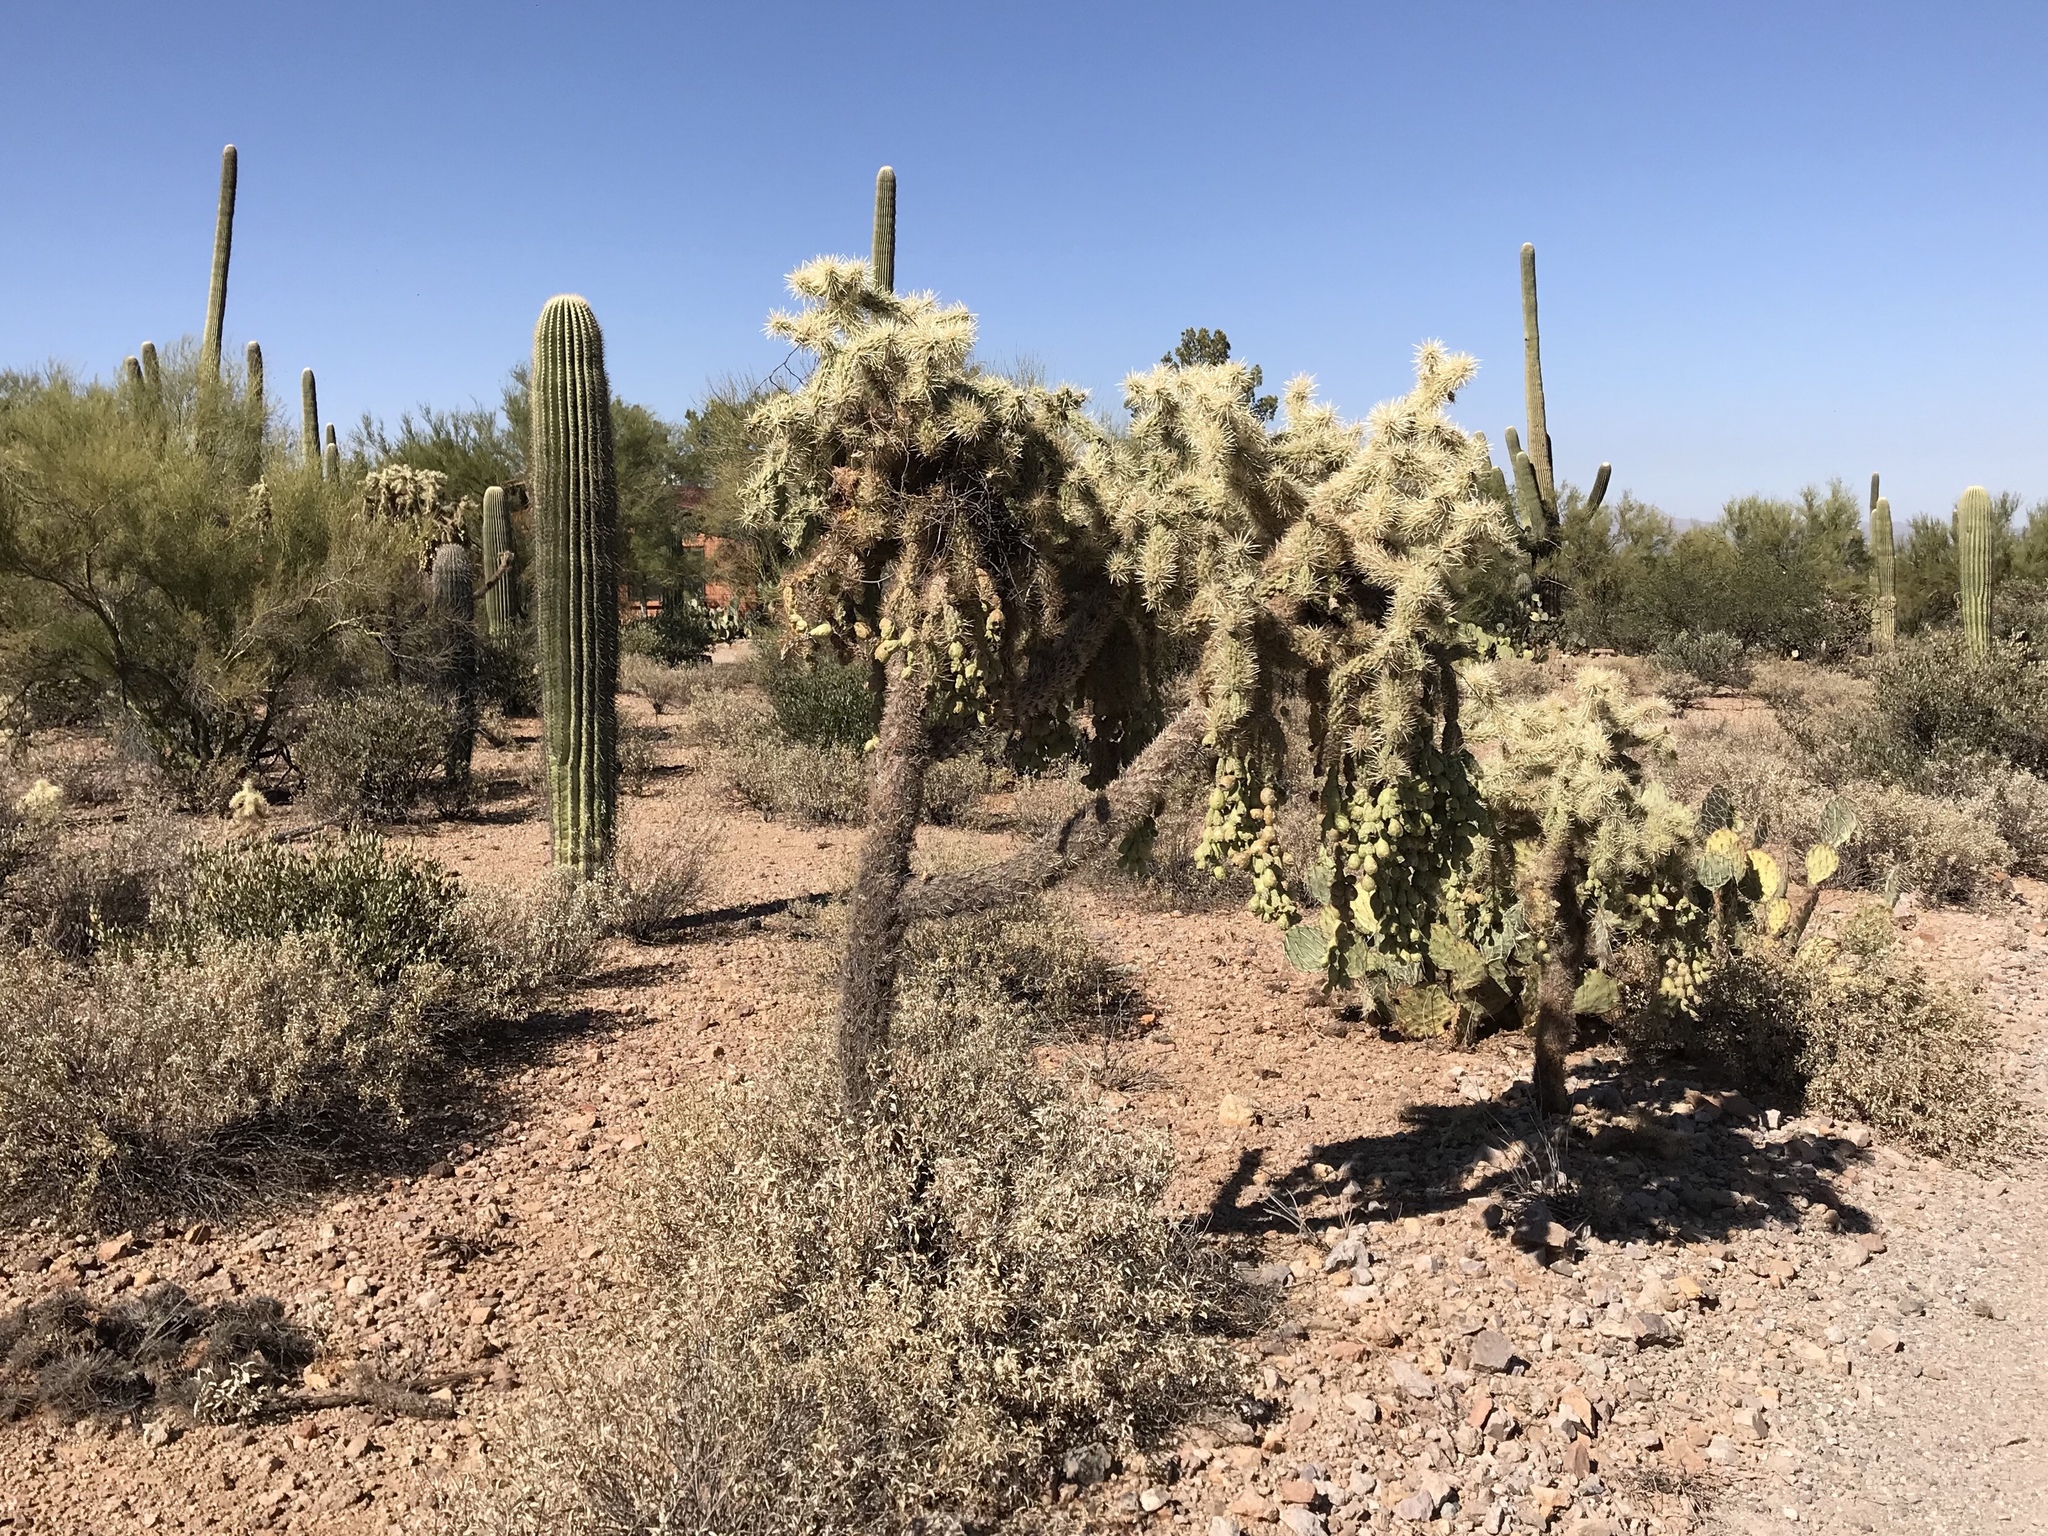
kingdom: Plantae
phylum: Tracheophyta
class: Magnoliopsida
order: Caryophyllales
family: Cactaceae
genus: Cylindropuntia
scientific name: Cylindropuntia fulgida
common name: Jumping cholla
